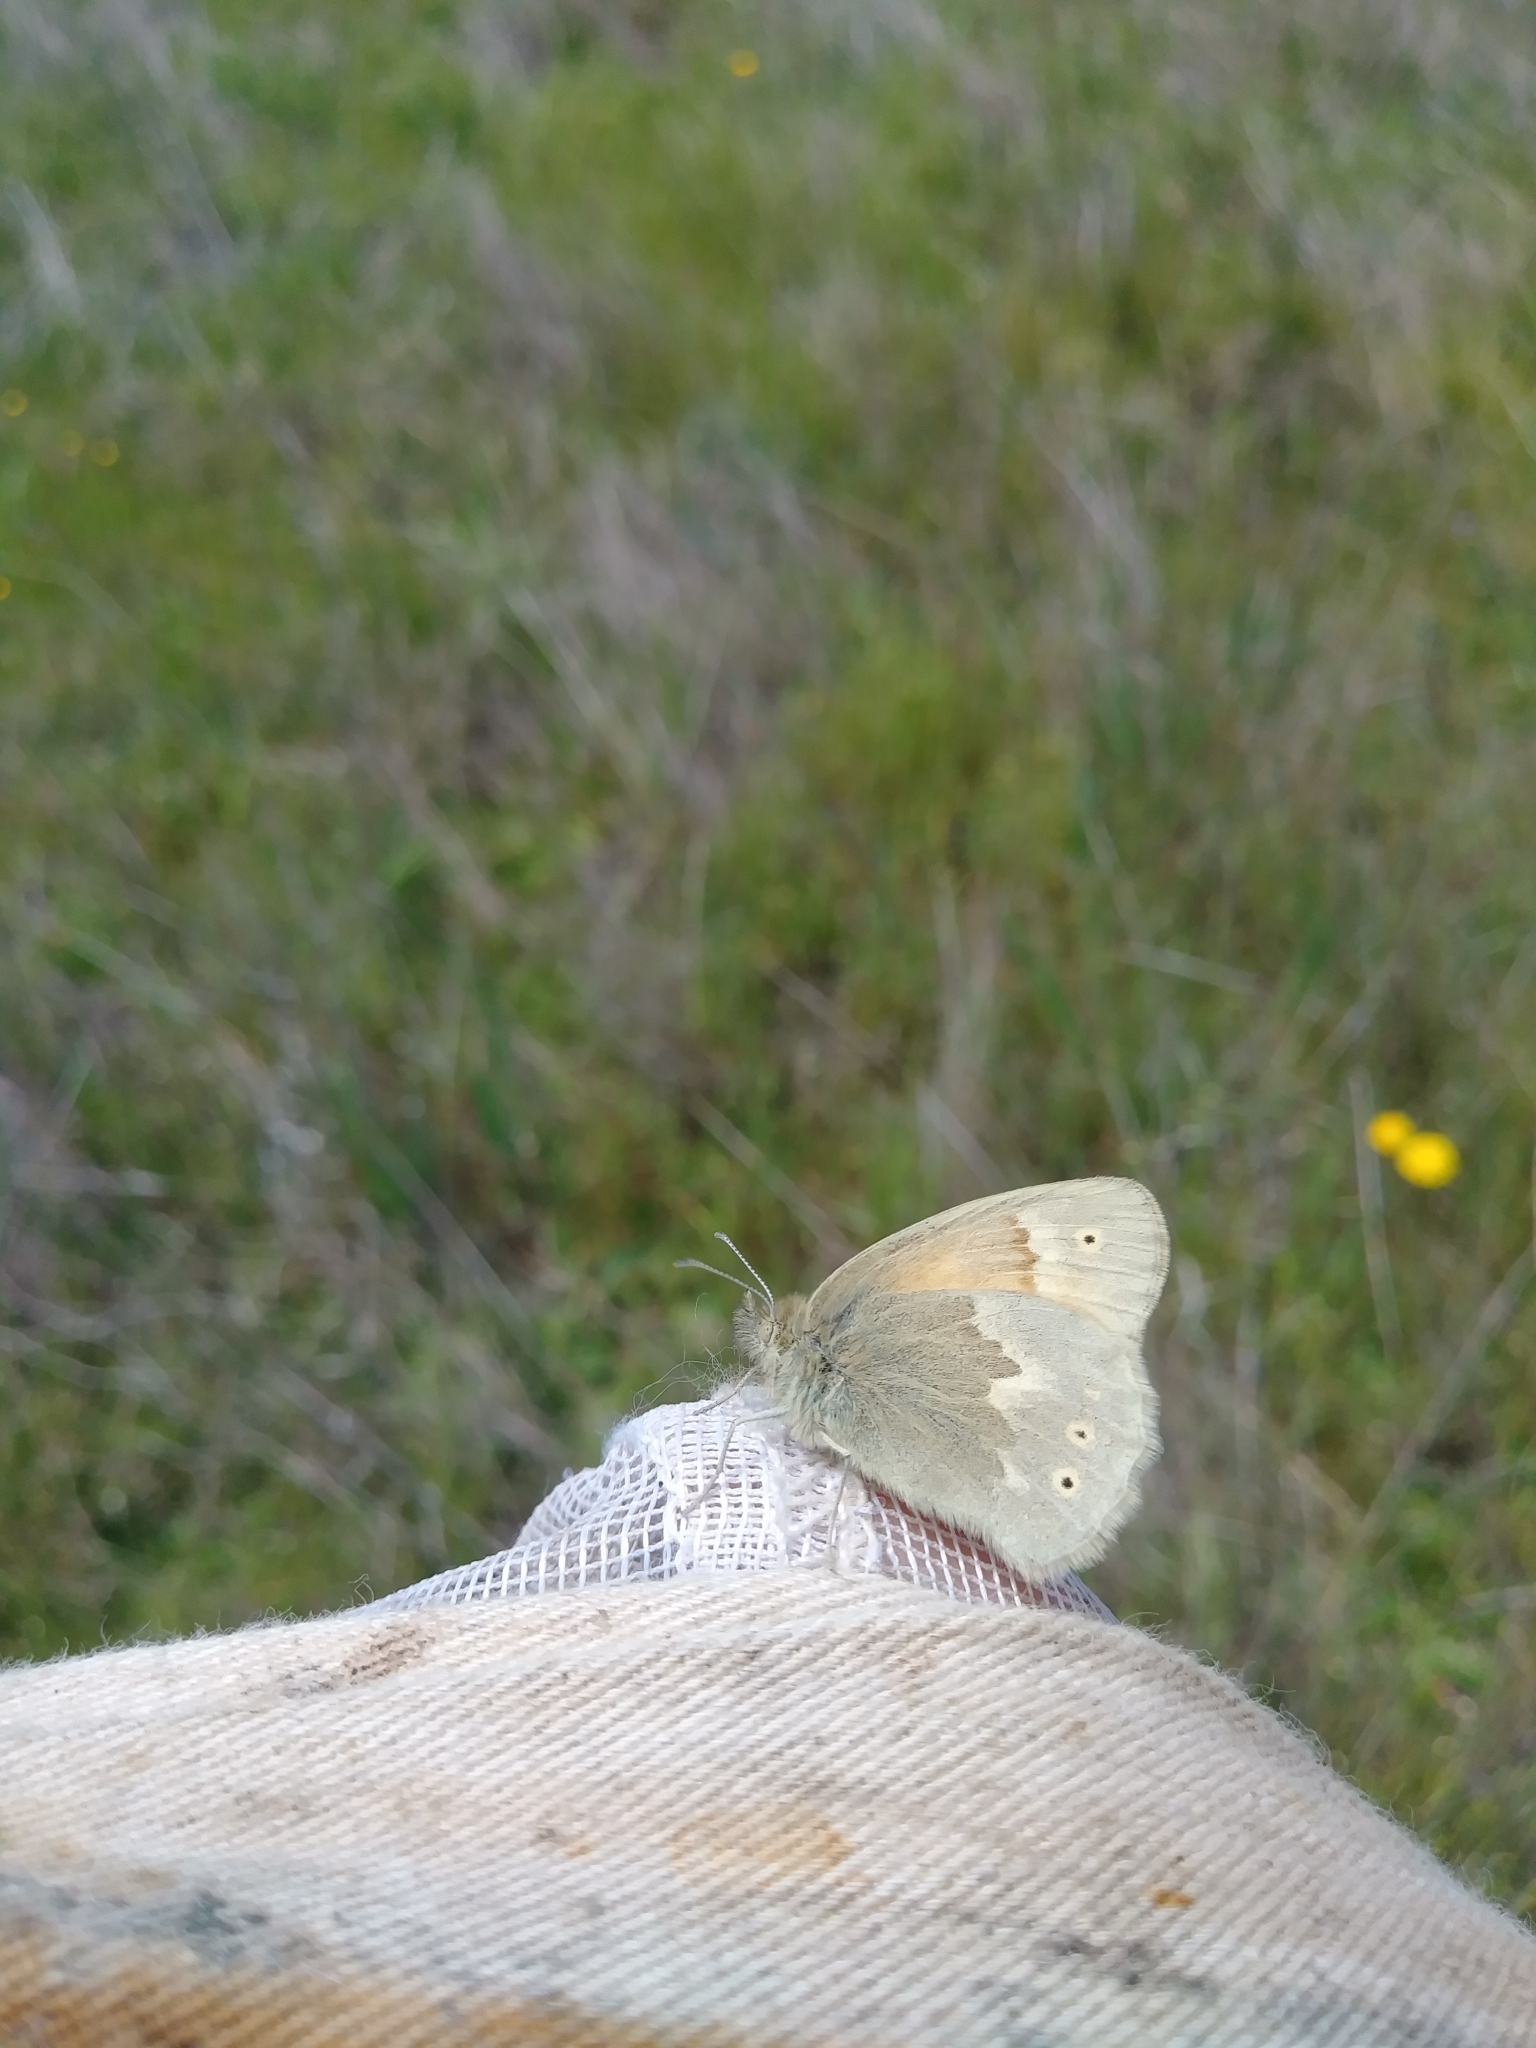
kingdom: Animalia
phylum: Arthropoda
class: Insecta
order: Lepidoptera
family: Nymphalidae
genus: Coenonympha
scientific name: Coenonympha california
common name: Common ringlet
